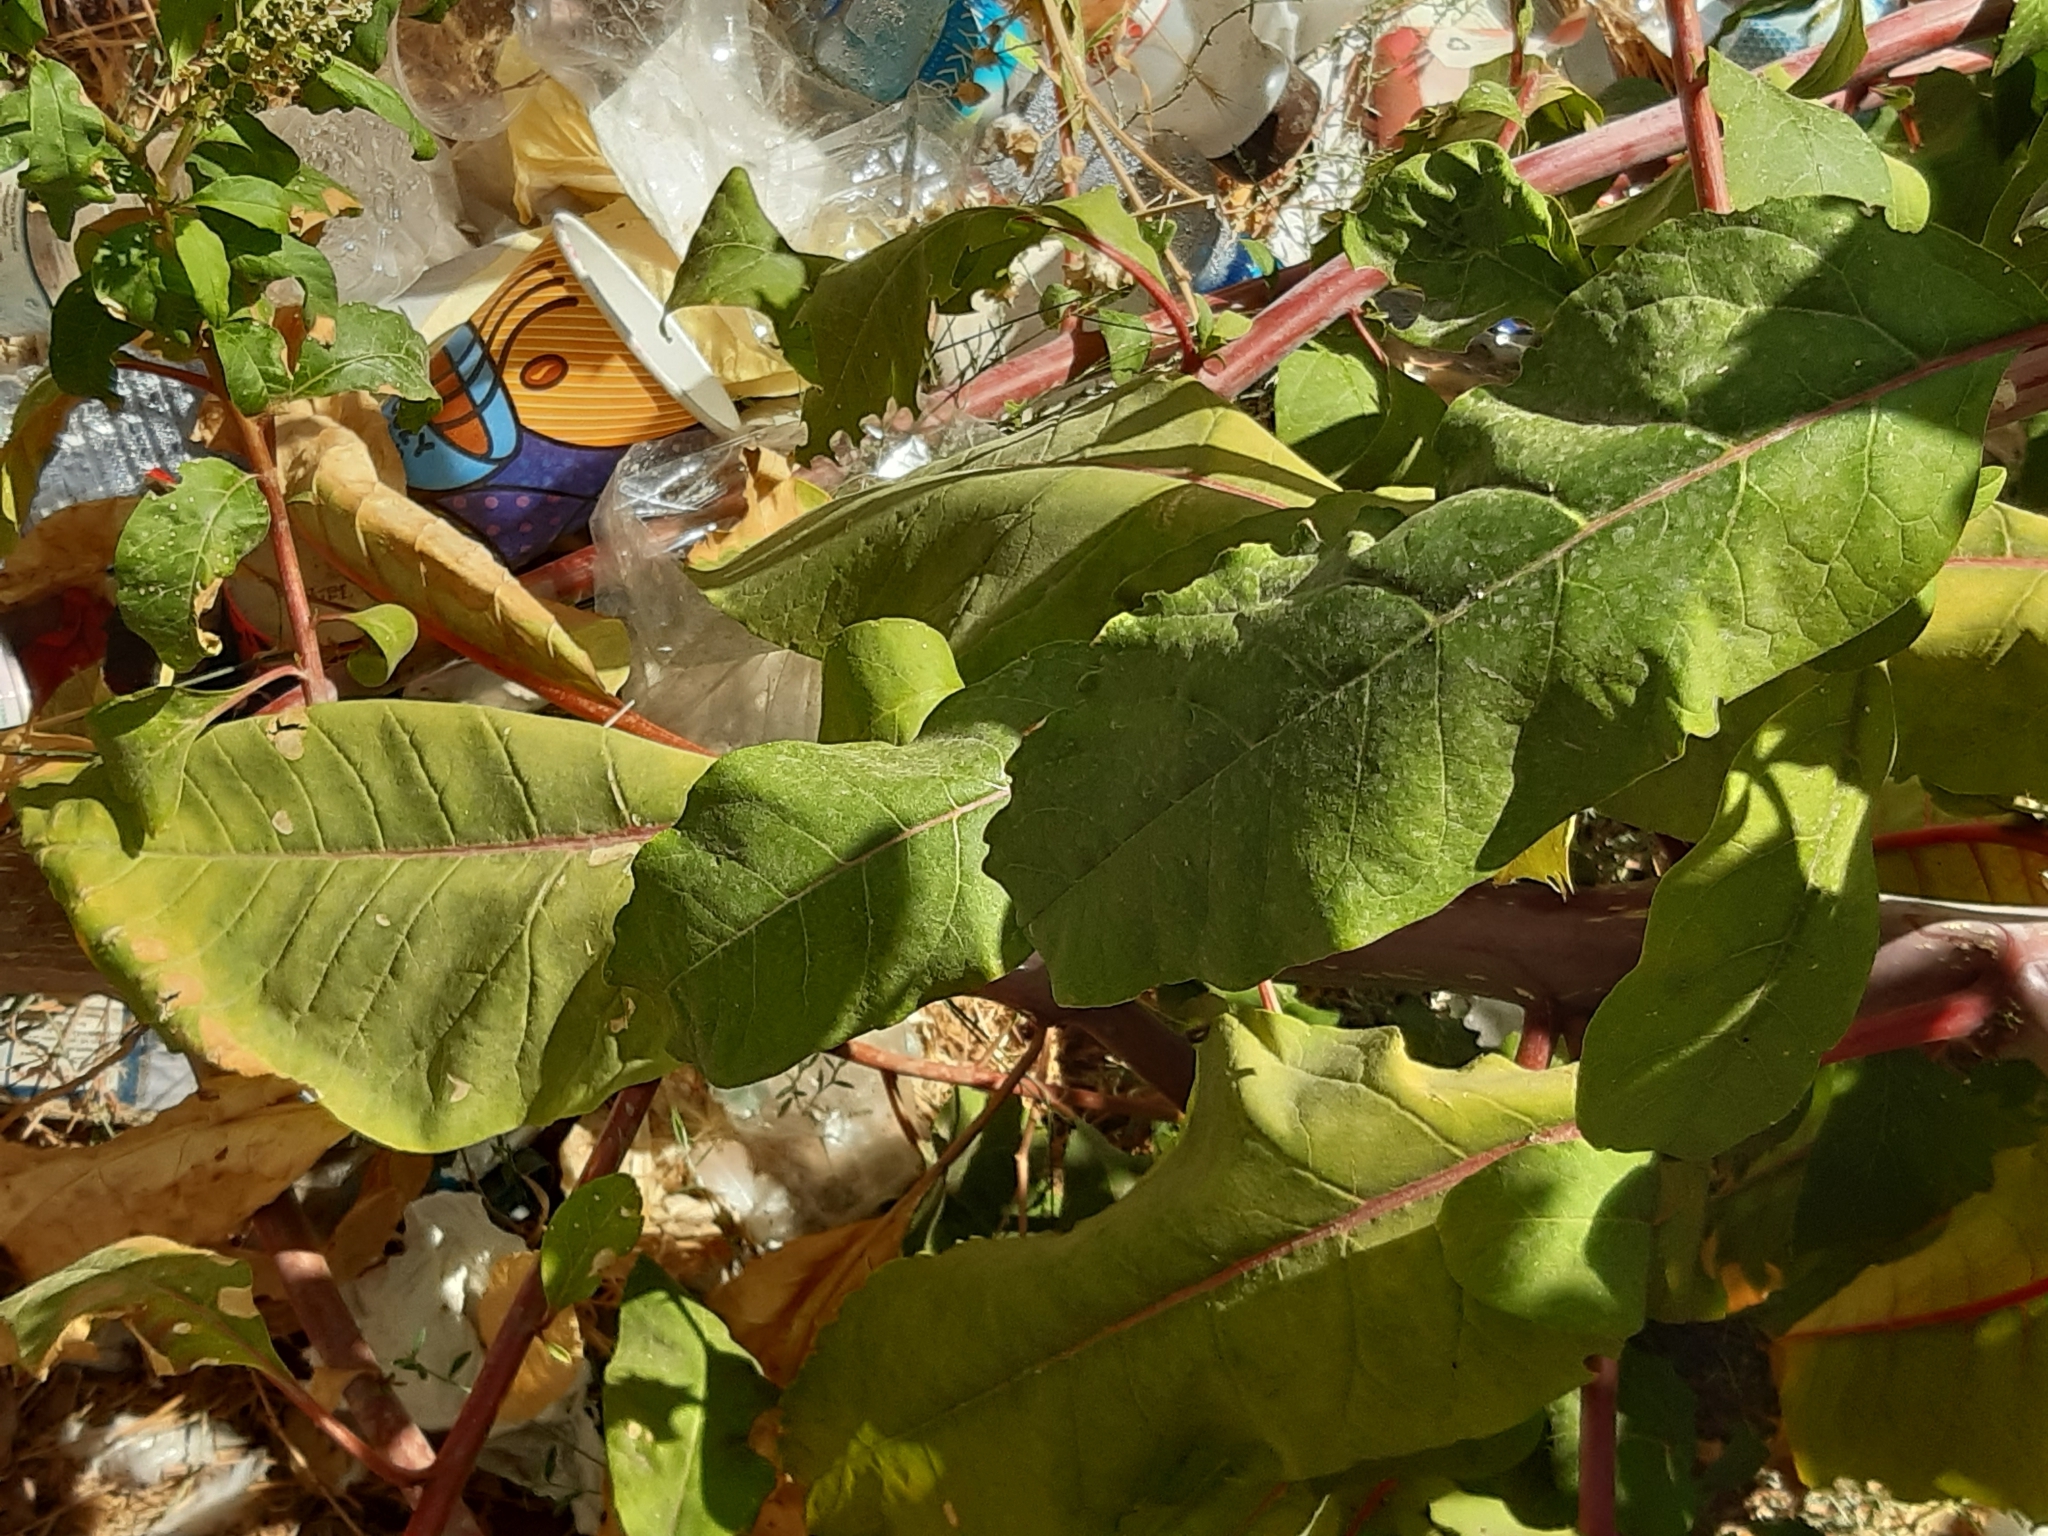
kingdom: Plantae
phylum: Tracheophyta
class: Magnoliopsida
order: Caryophyllales
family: Phytolaccaceae
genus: Phytolacca
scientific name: Phytolacca americana
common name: American pokeweed
